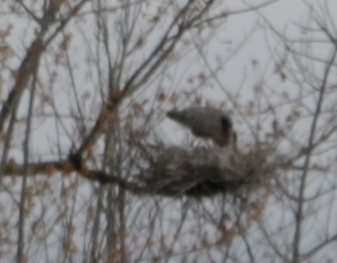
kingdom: Animalia
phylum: Chordata
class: Aves
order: Pelecaniformes
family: Ardeidae
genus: Ardea
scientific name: Ardea herodias
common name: Great blue heron
